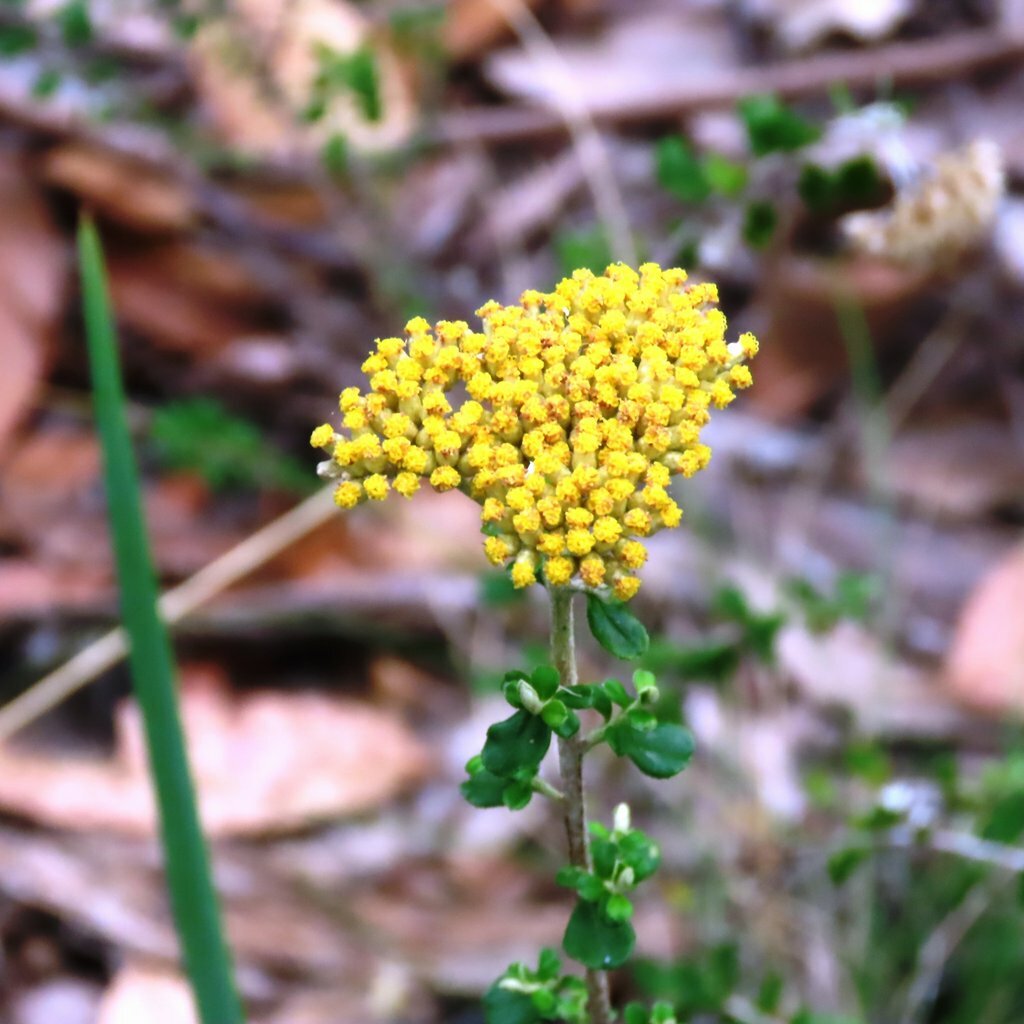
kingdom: Plantae
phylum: Tracheophyta
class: Magnoliopsida
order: Asterales
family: Asteraceae
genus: Ozothamnus
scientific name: Ozothamnus obcordatus
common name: Grey everlasting
